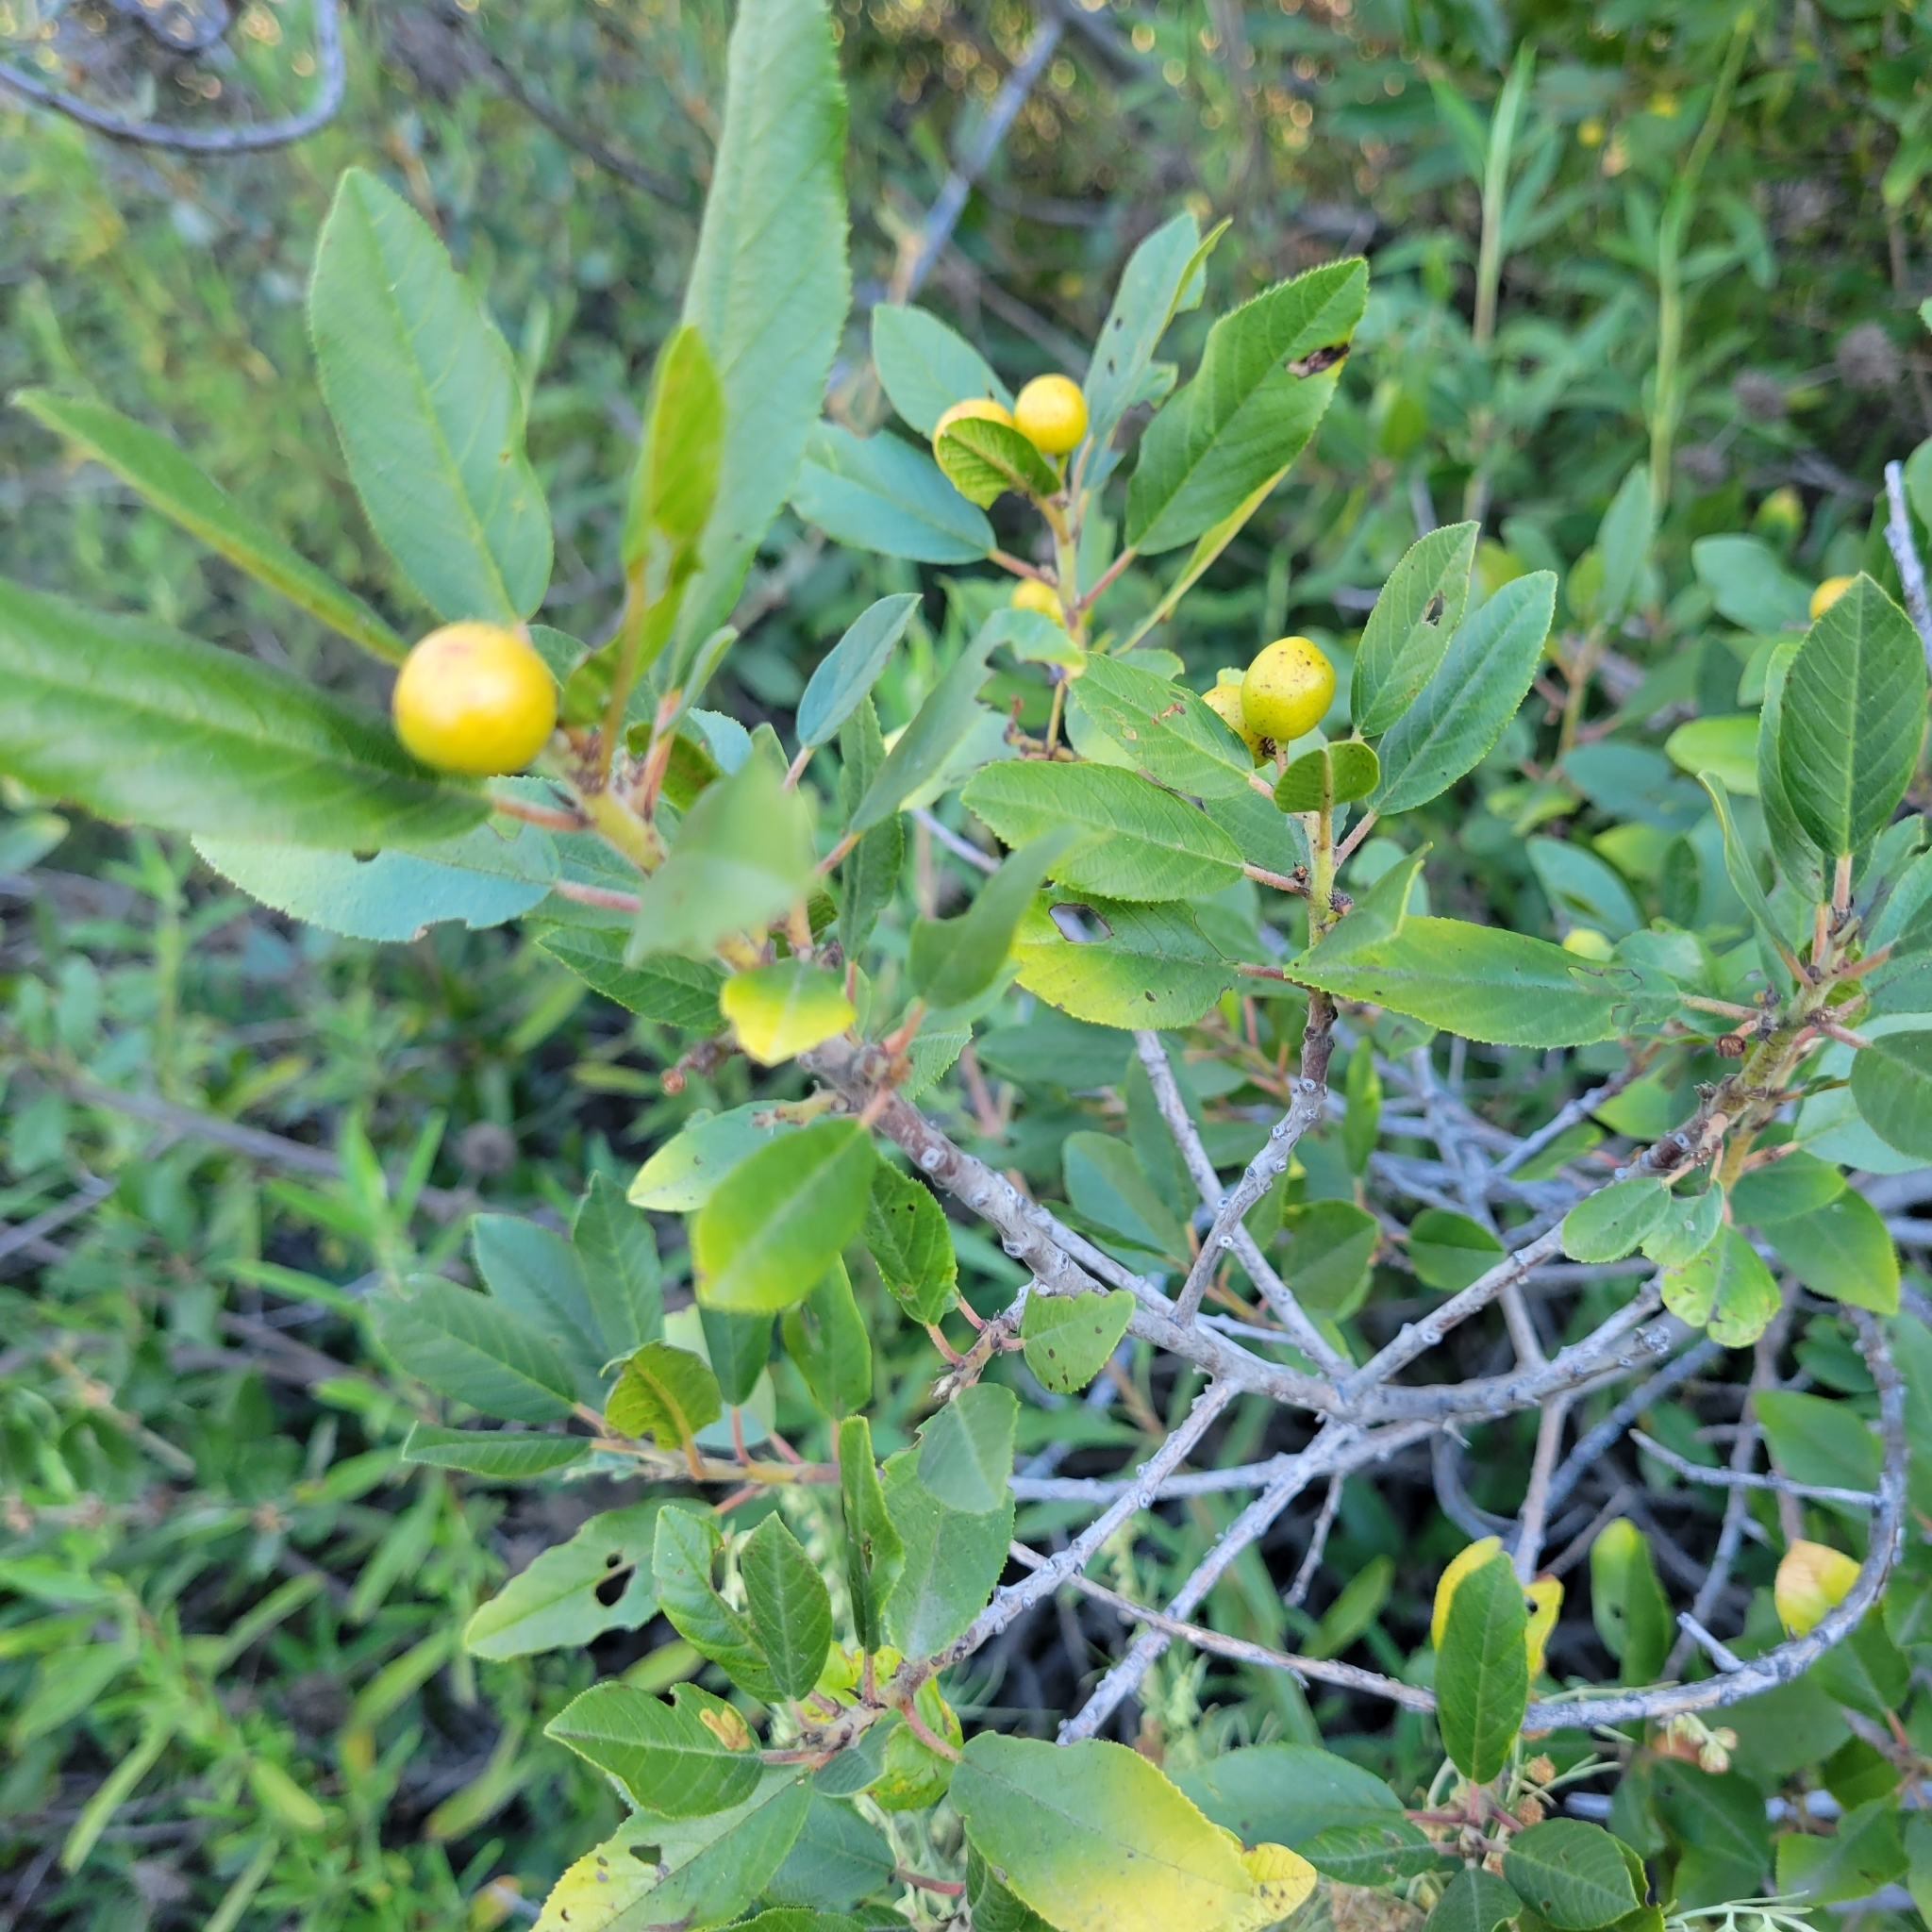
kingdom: Plantae
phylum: Tracheophyta
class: Magnoliopsida
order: Rosales
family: Rhamnaceae
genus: Frangula
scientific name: Frangula californica
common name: California buckthorn
